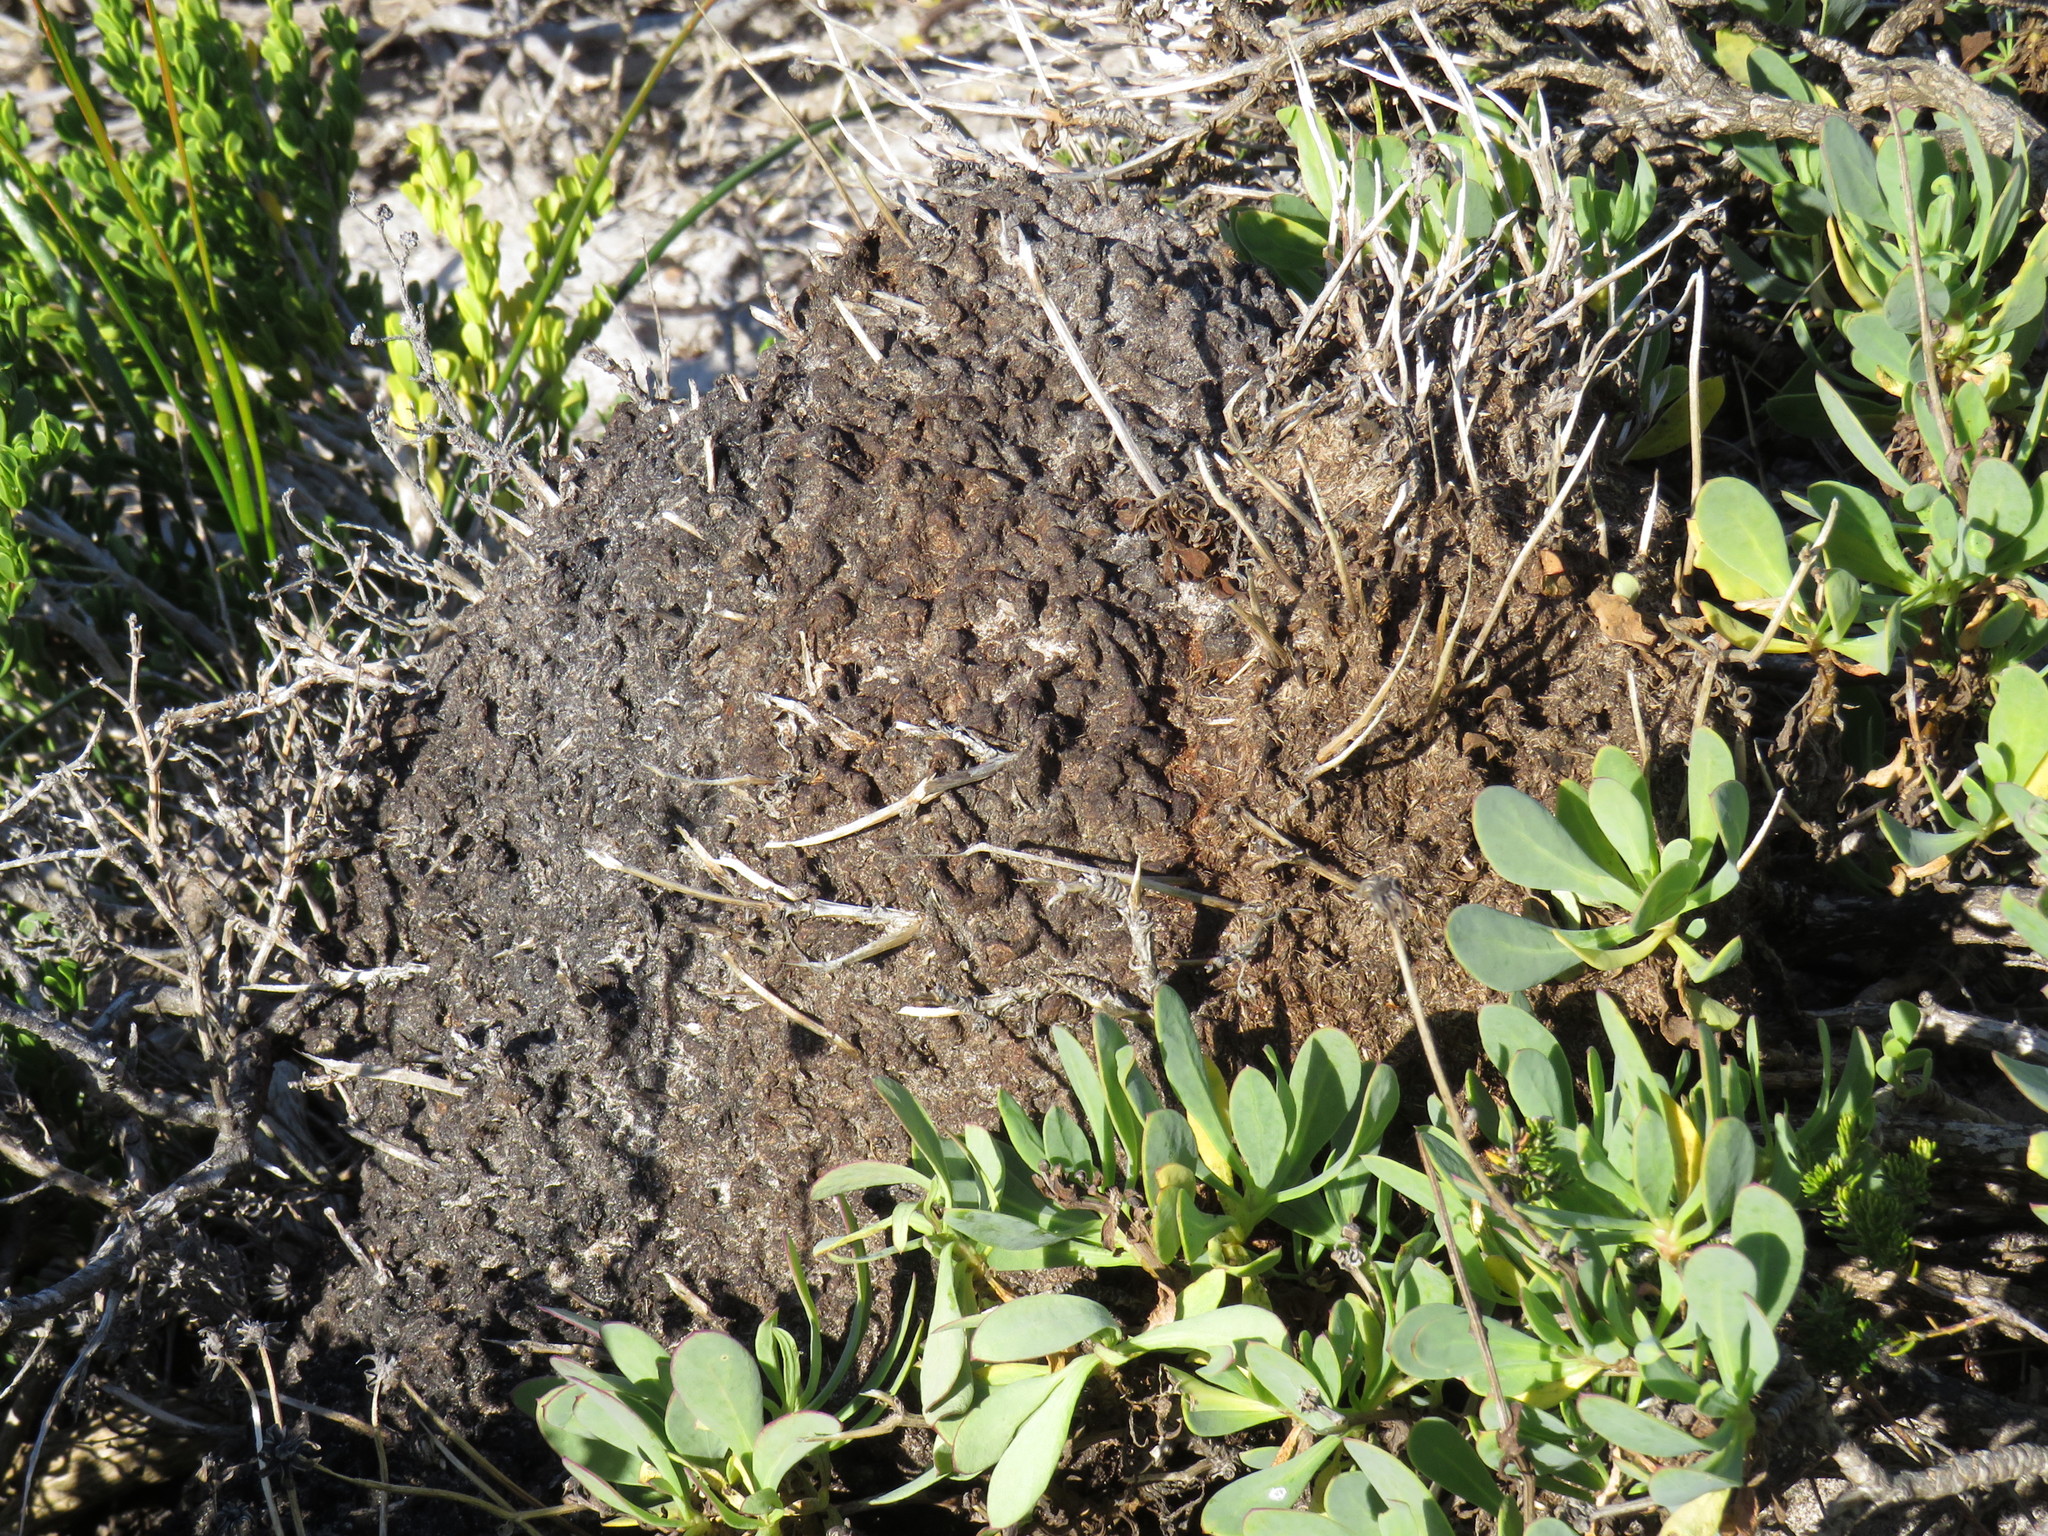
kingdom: Animalia
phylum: Arthropoda
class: Insecta
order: Hymenoptera
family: Formicidae
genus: Crematogaster
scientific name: Crematogaster peringueyi
